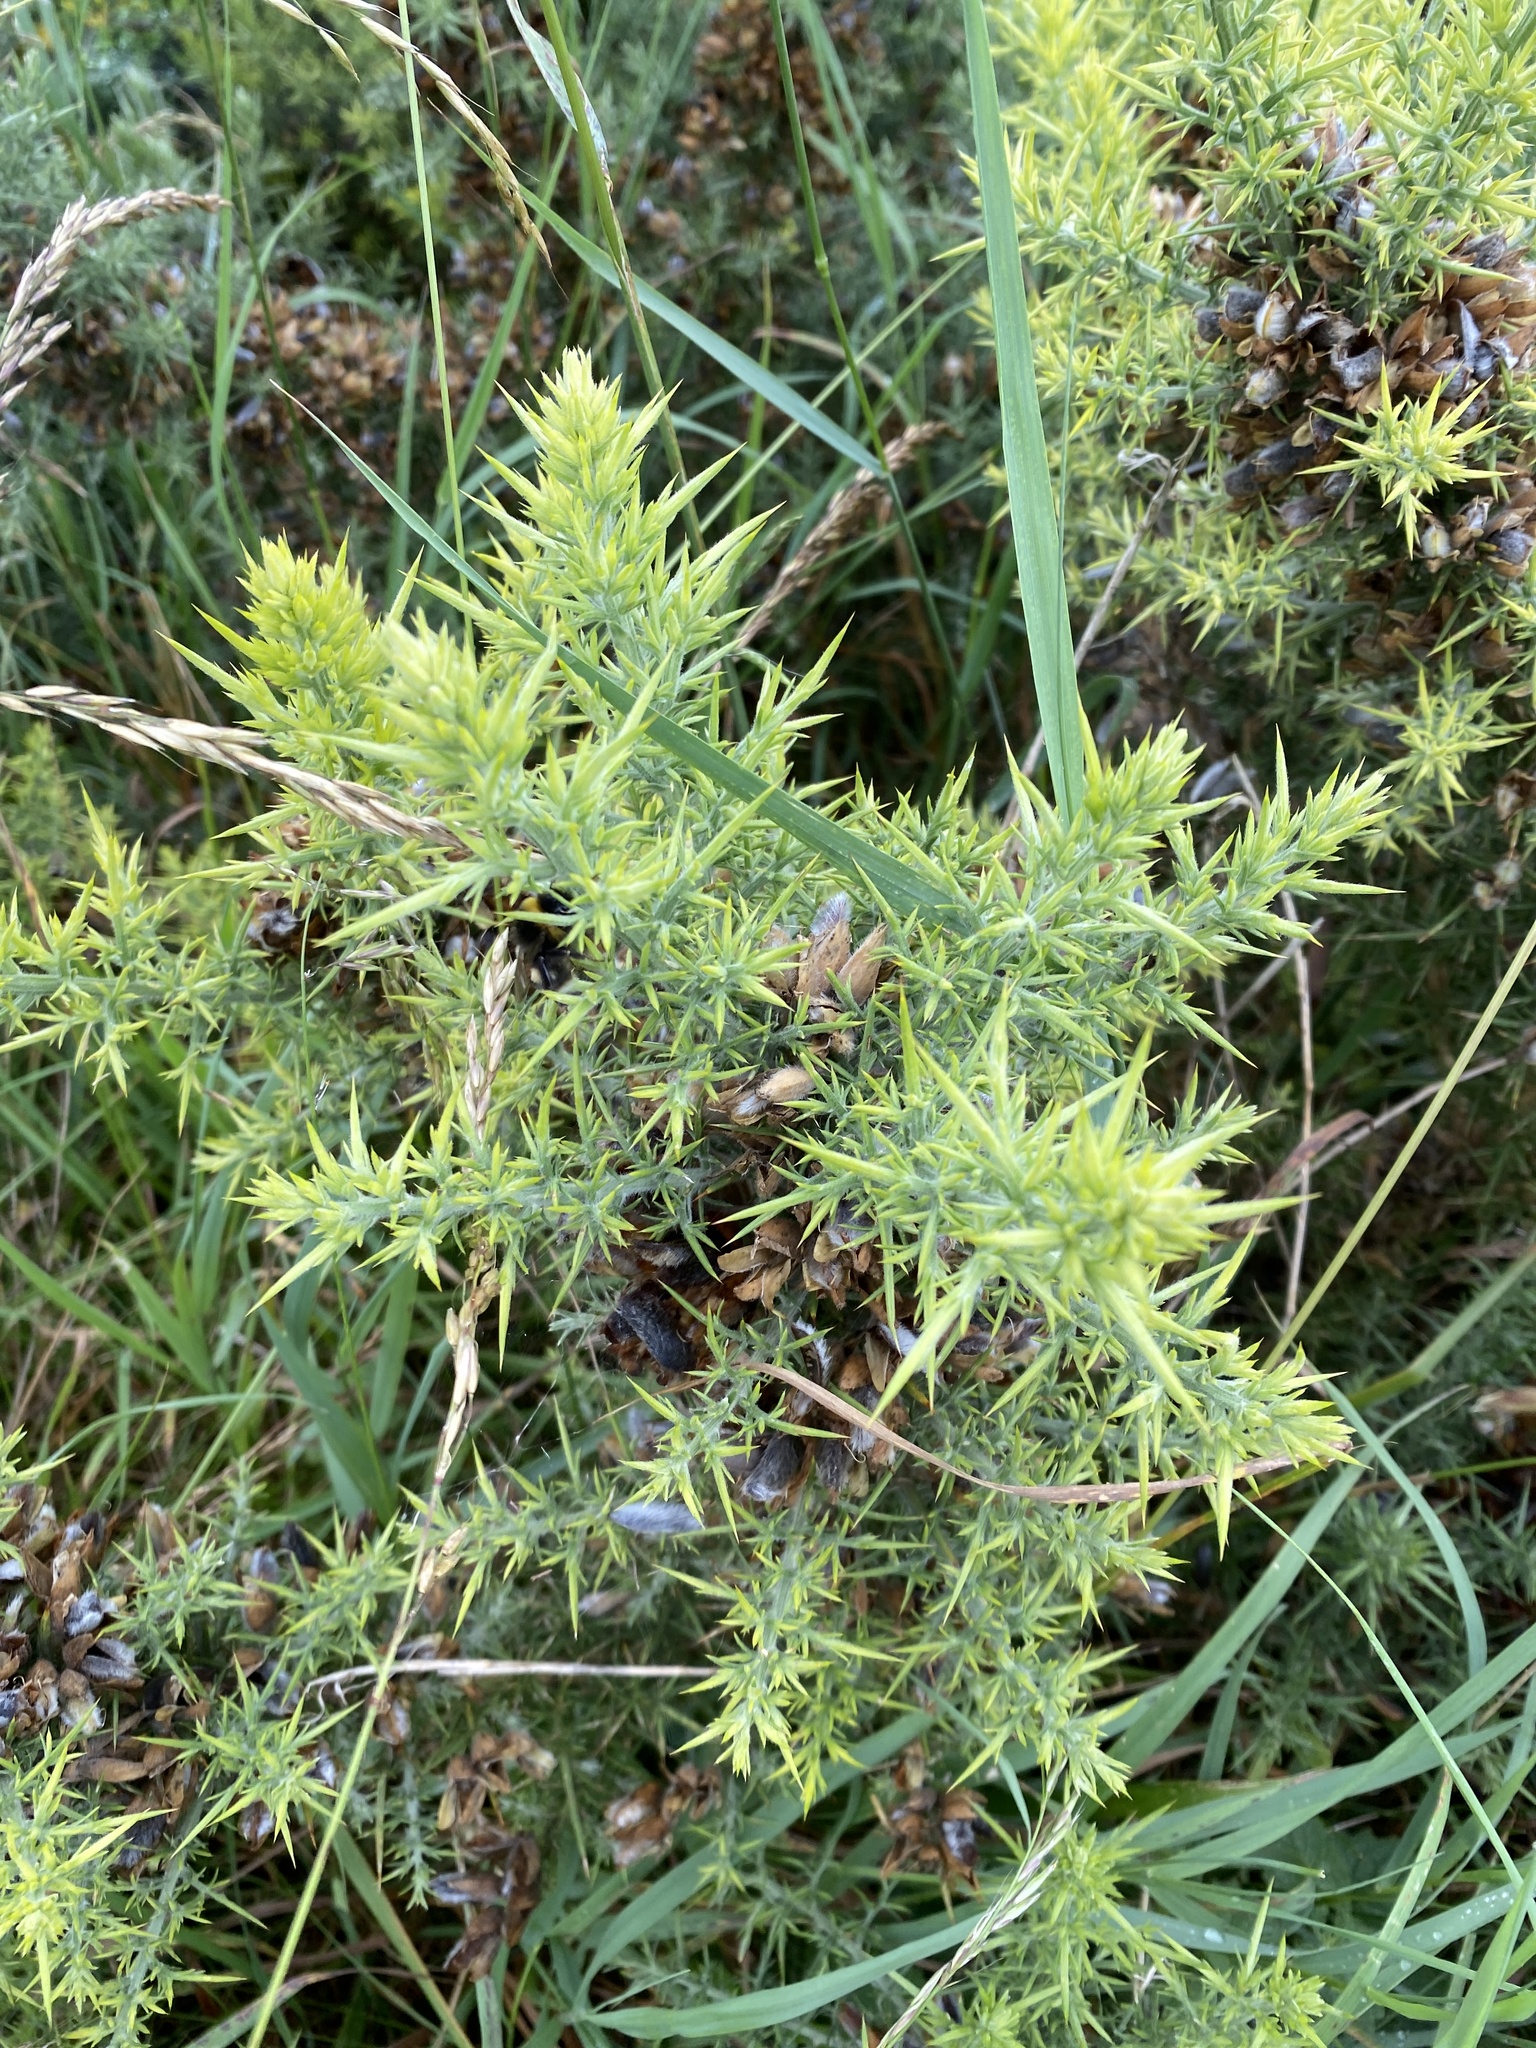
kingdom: Plantae
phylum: Tracheophyta
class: Magnoliopsida
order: Fabales
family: Fabaceae
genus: Ulex
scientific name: Ulex europaeus
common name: Common gorse
